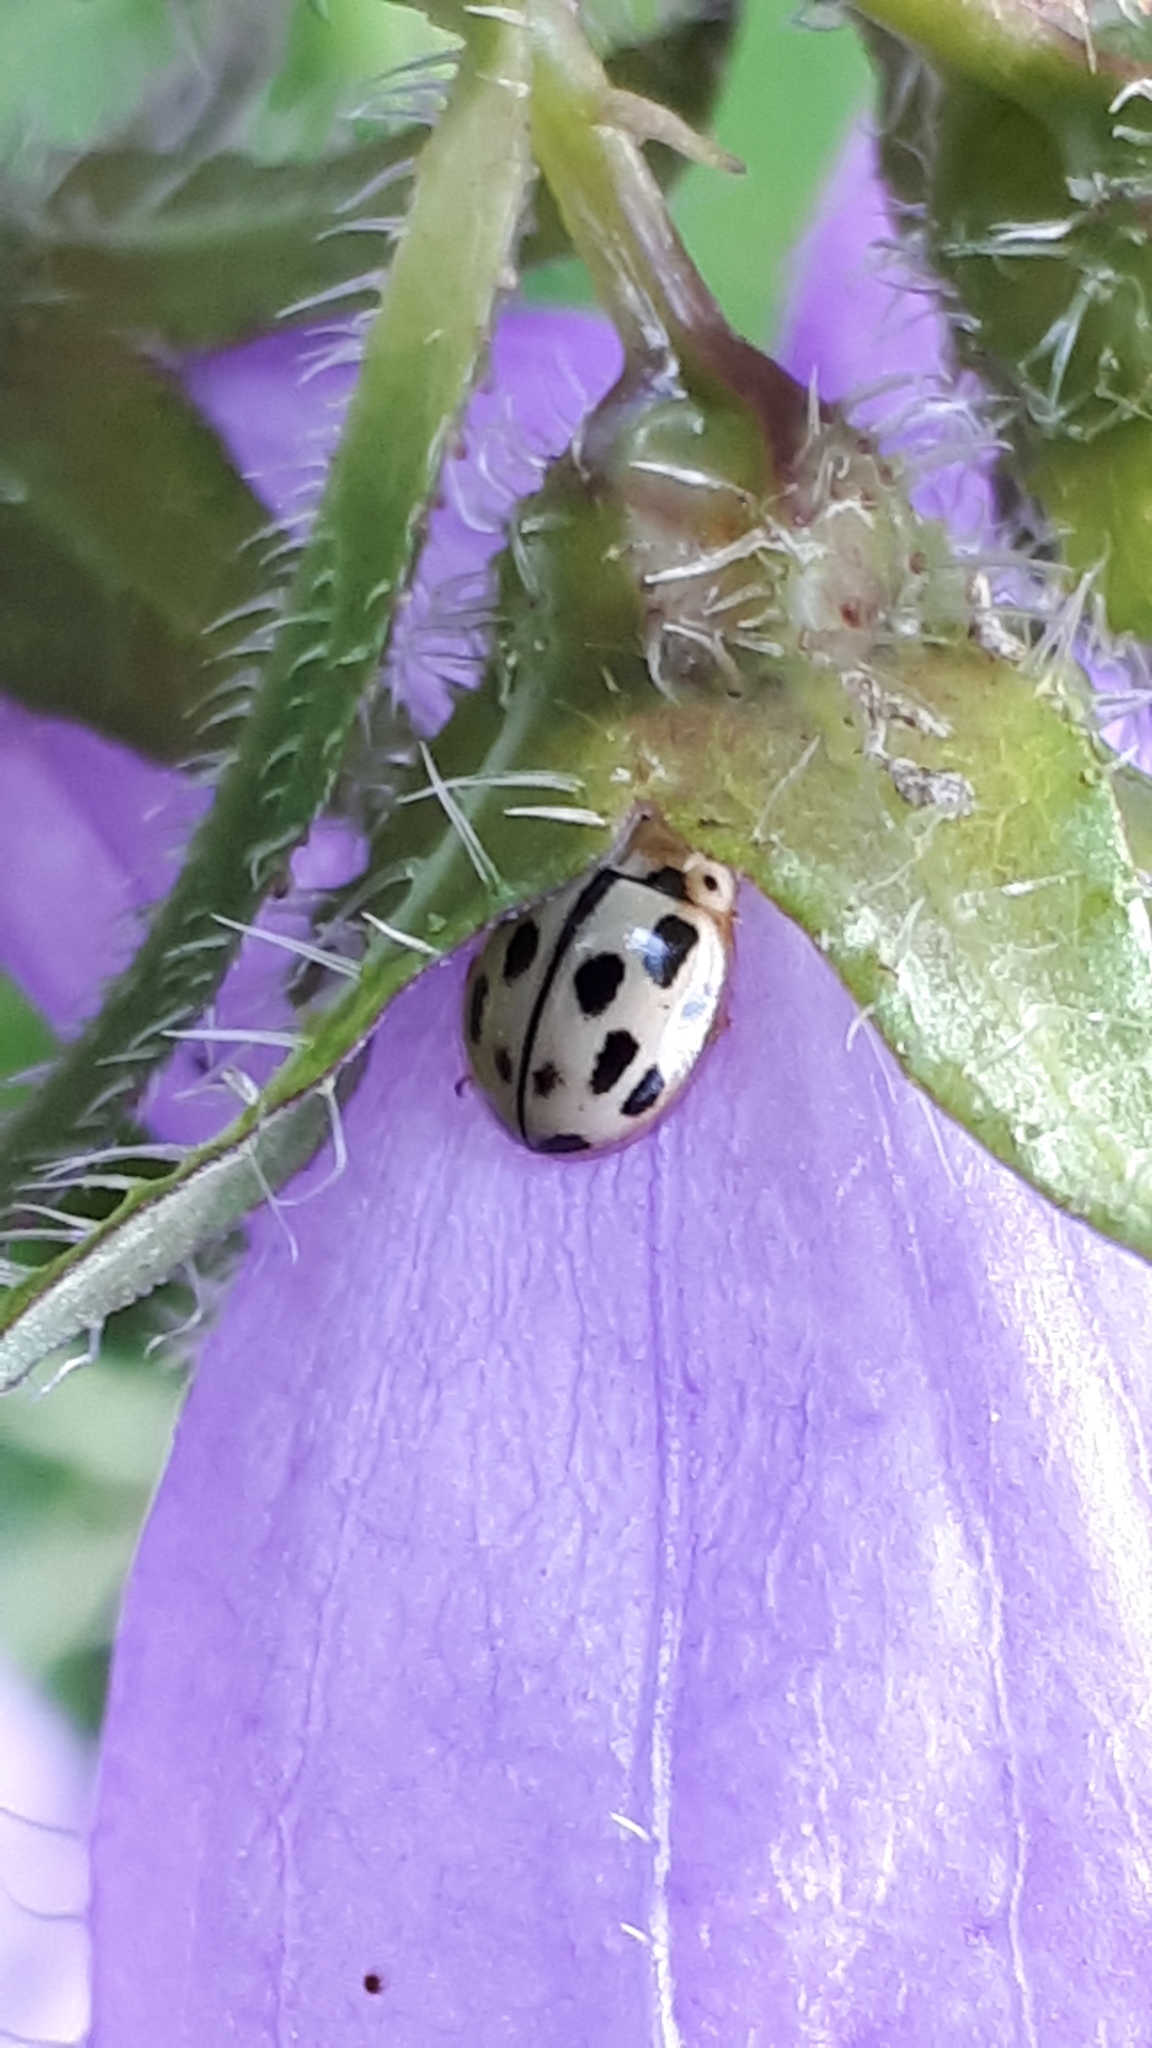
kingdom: Animalia
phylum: Arthropoda
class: Insecta
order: Coleoptera
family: Coccinellidae
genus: Propylaea
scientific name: Propylaea quatuordecimpunctata
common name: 14-spotted ladybird beetle
